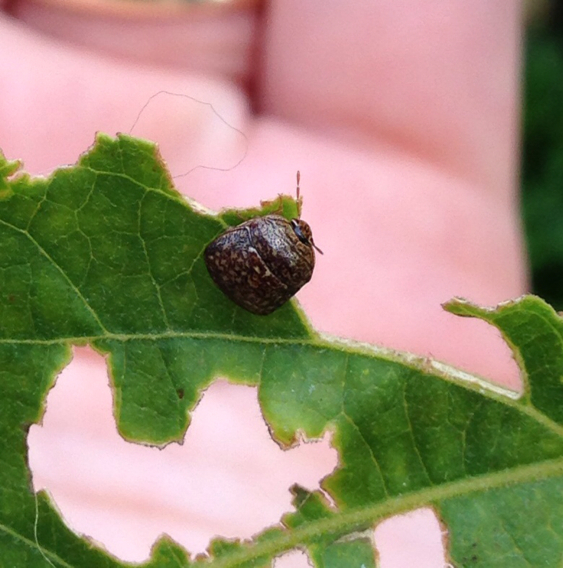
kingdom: Animalia
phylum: Arthropoda
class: Insecta
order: Hemiptera
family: Plataspidae
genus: Megacopta
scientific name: Megacopta cribraria
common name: Bean plataspid
